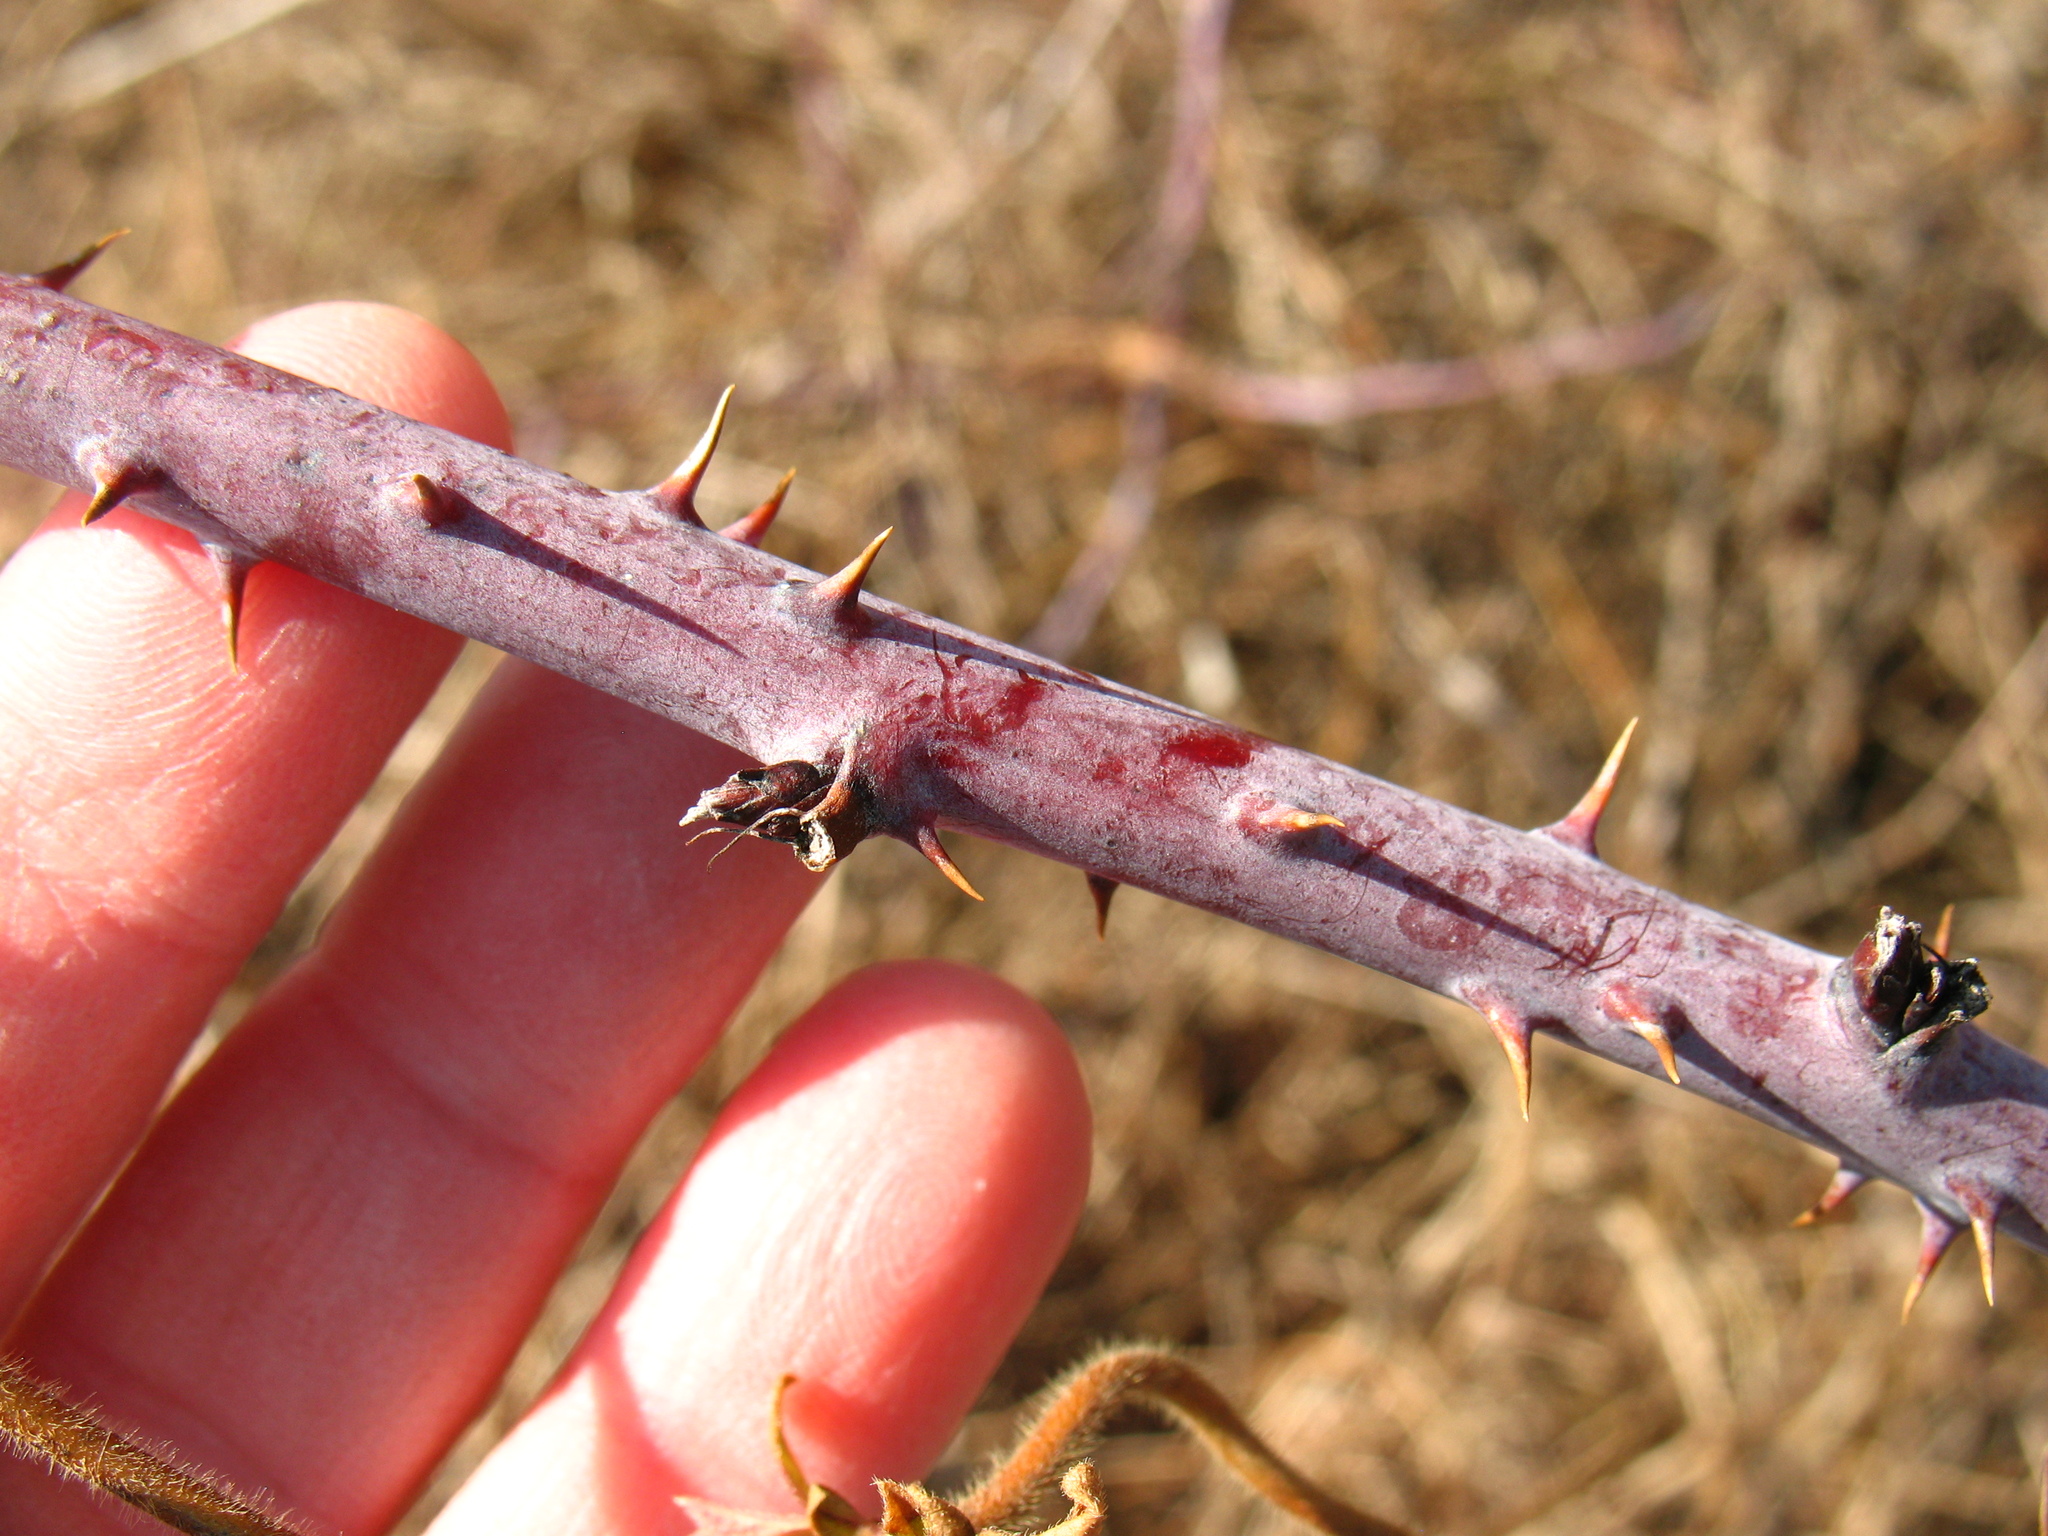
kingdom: Plantae
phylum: Tracheophyta
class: Magnoliopsida
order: Rosales
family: Rosaceae
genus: Rubus
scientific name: Rubus occidentalis
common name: Black raspberry
